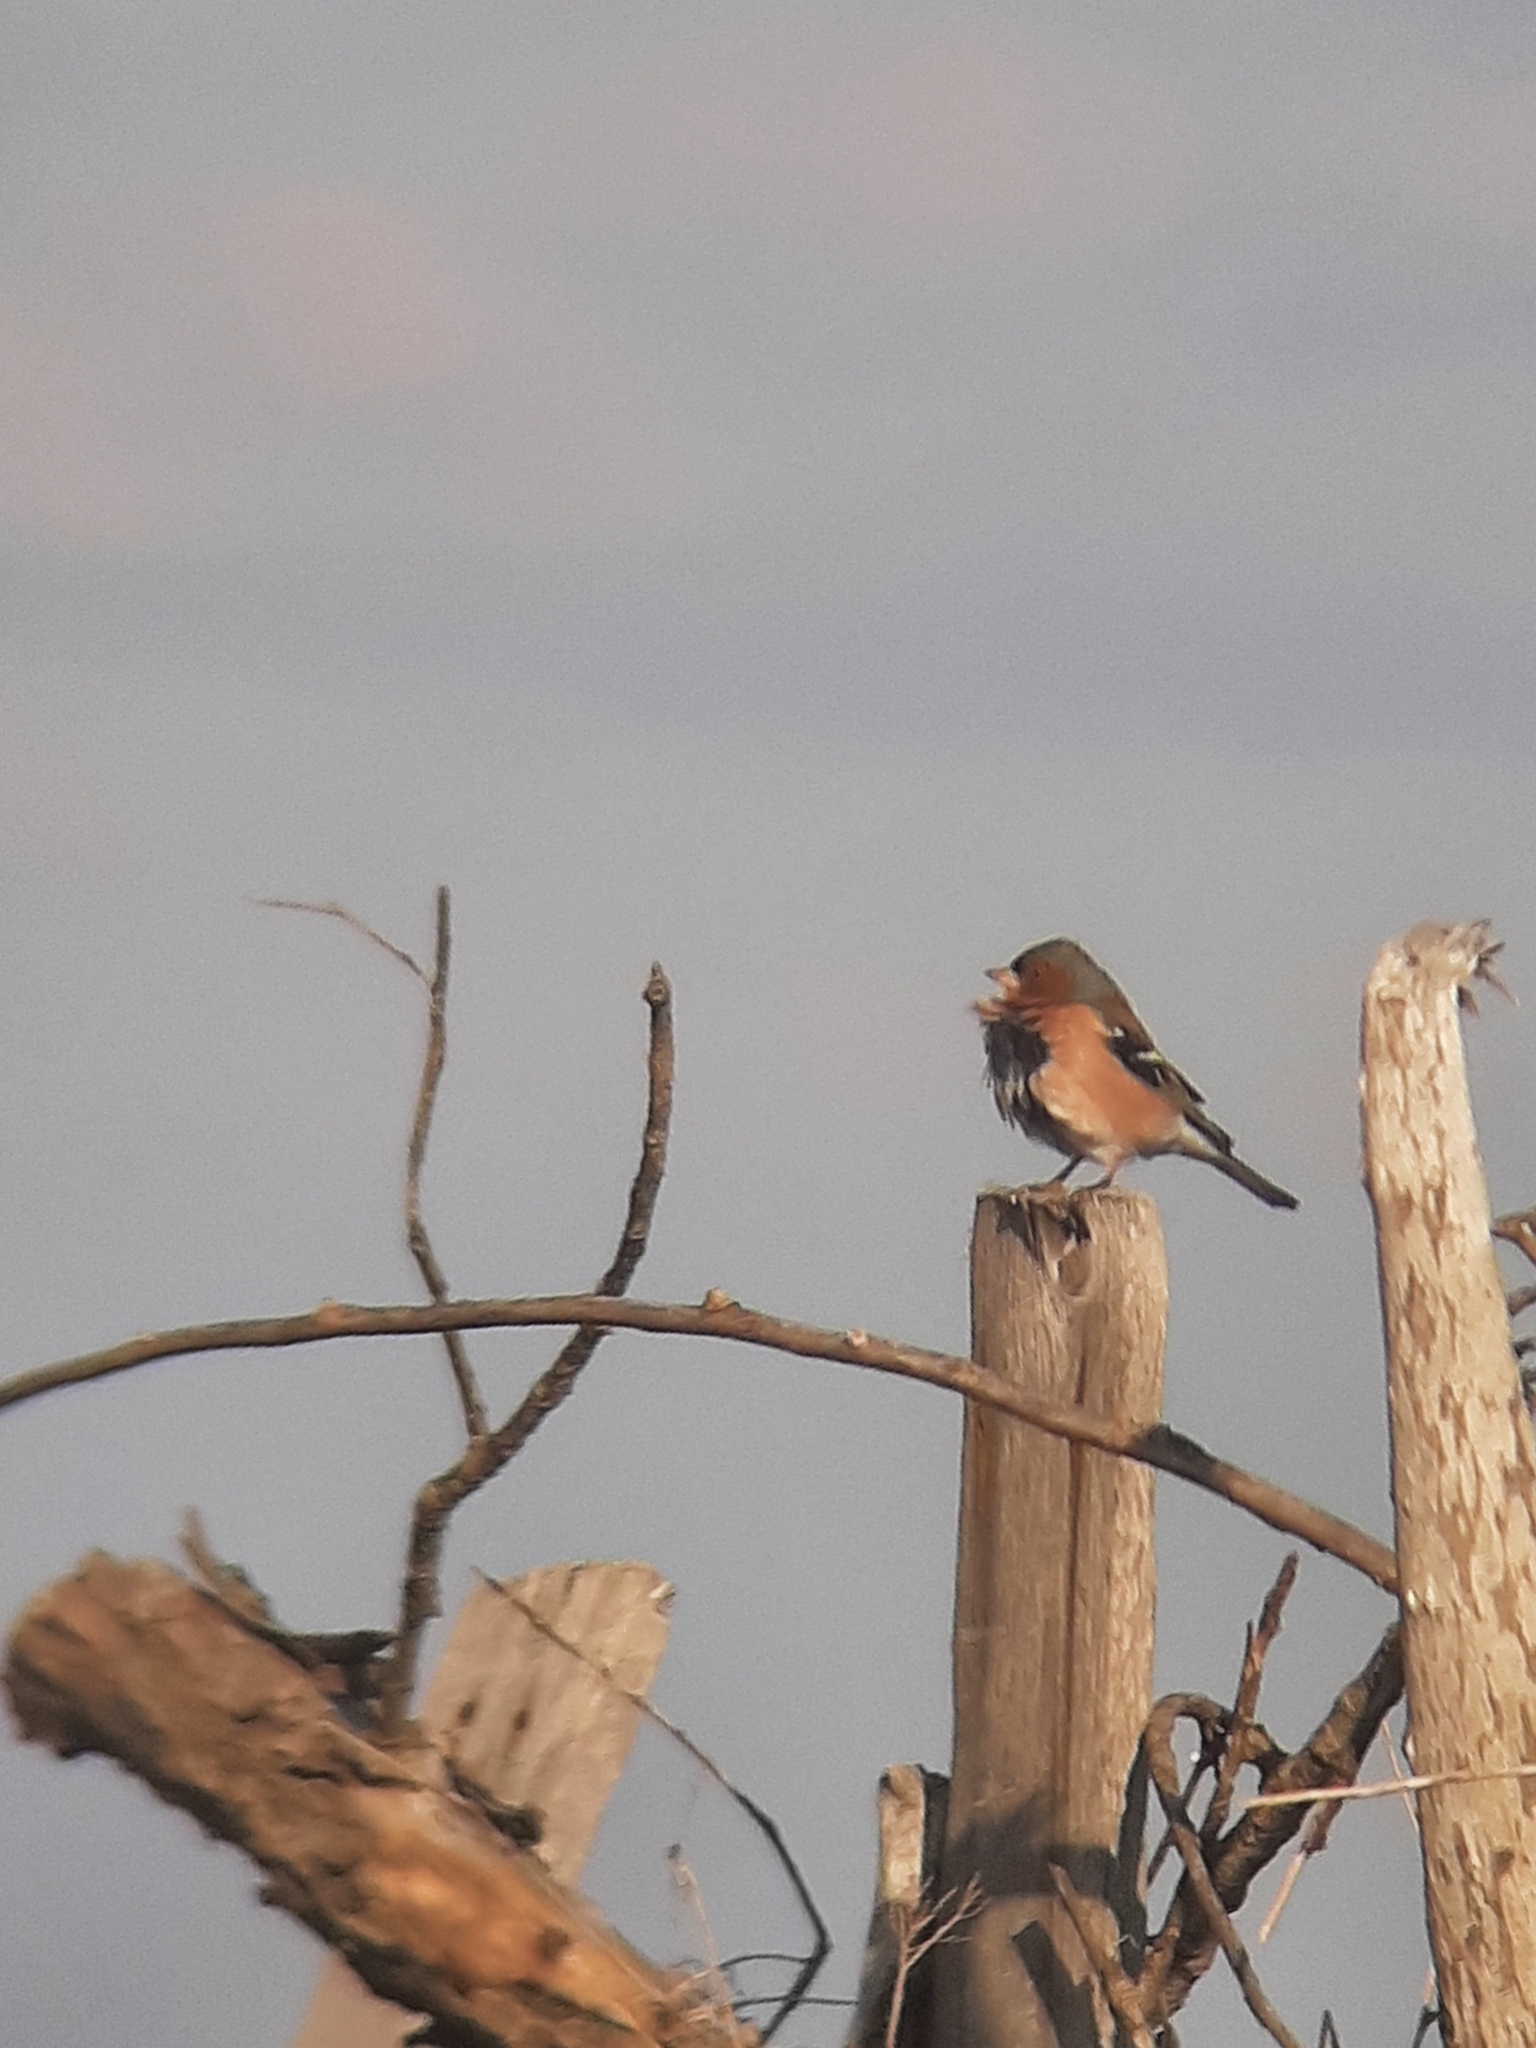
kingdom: Animalia
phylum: Chordata
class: Aves
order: Passeriformes
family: Fringillidae
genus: Fringilla
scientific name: Fringilla coelebs
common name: Common chaffinch
